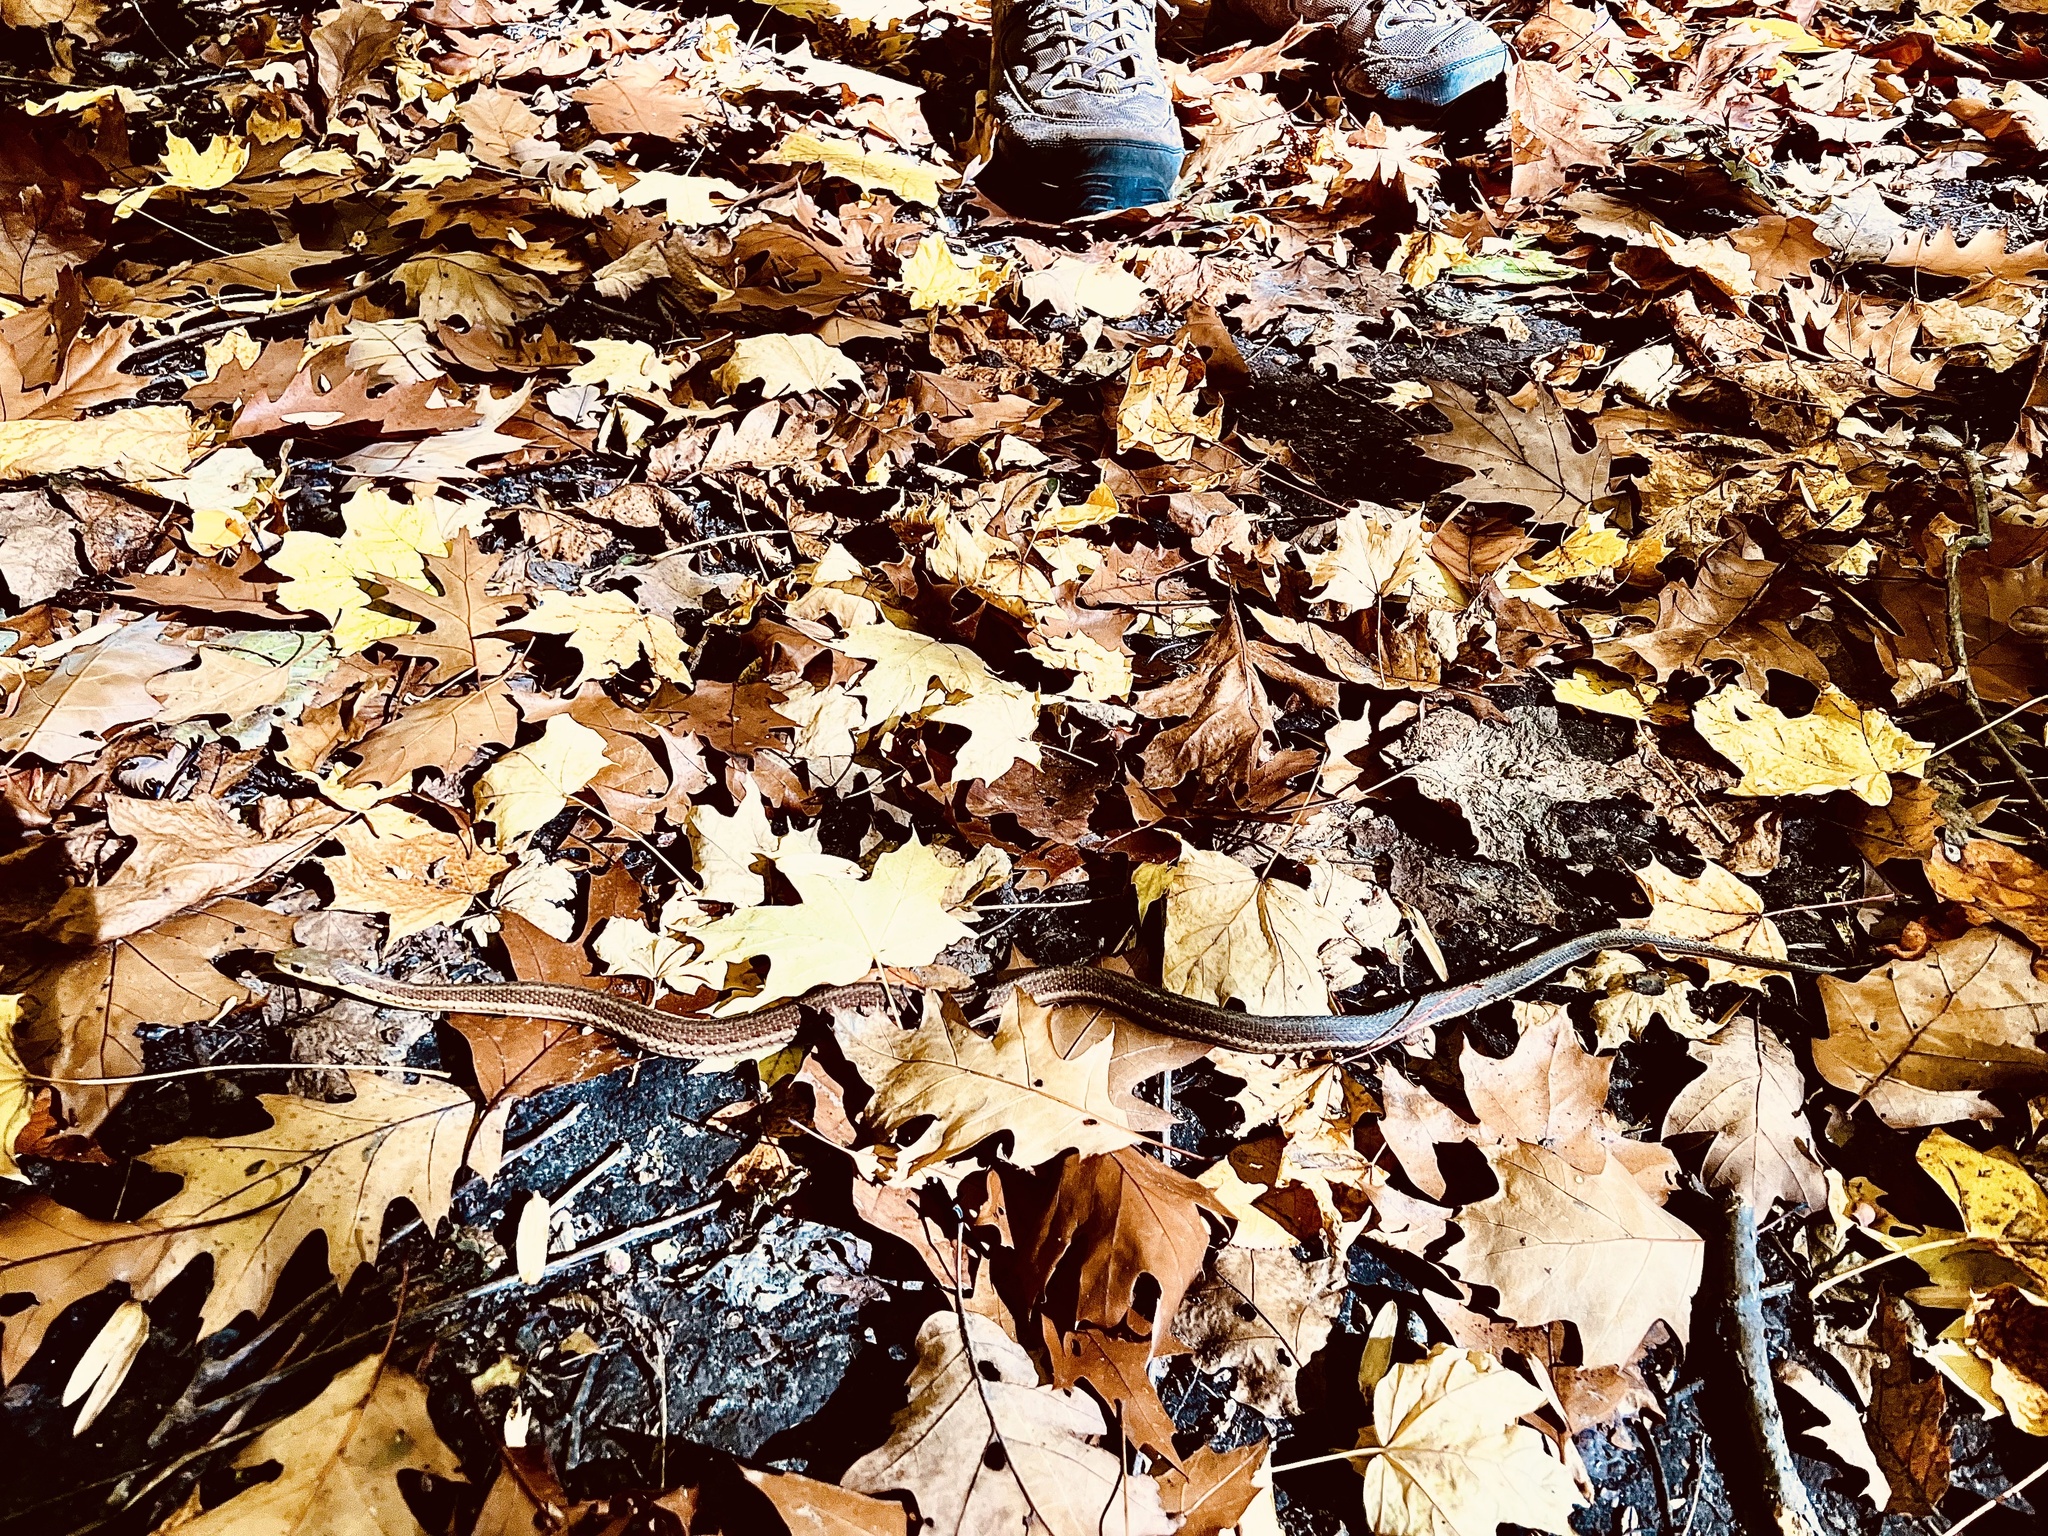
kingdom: Animalia
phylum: Chordata
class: Squamata
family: Colubridae
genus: Thamnophis
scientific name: Thamnophis sirtalis
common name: Common garter snake
